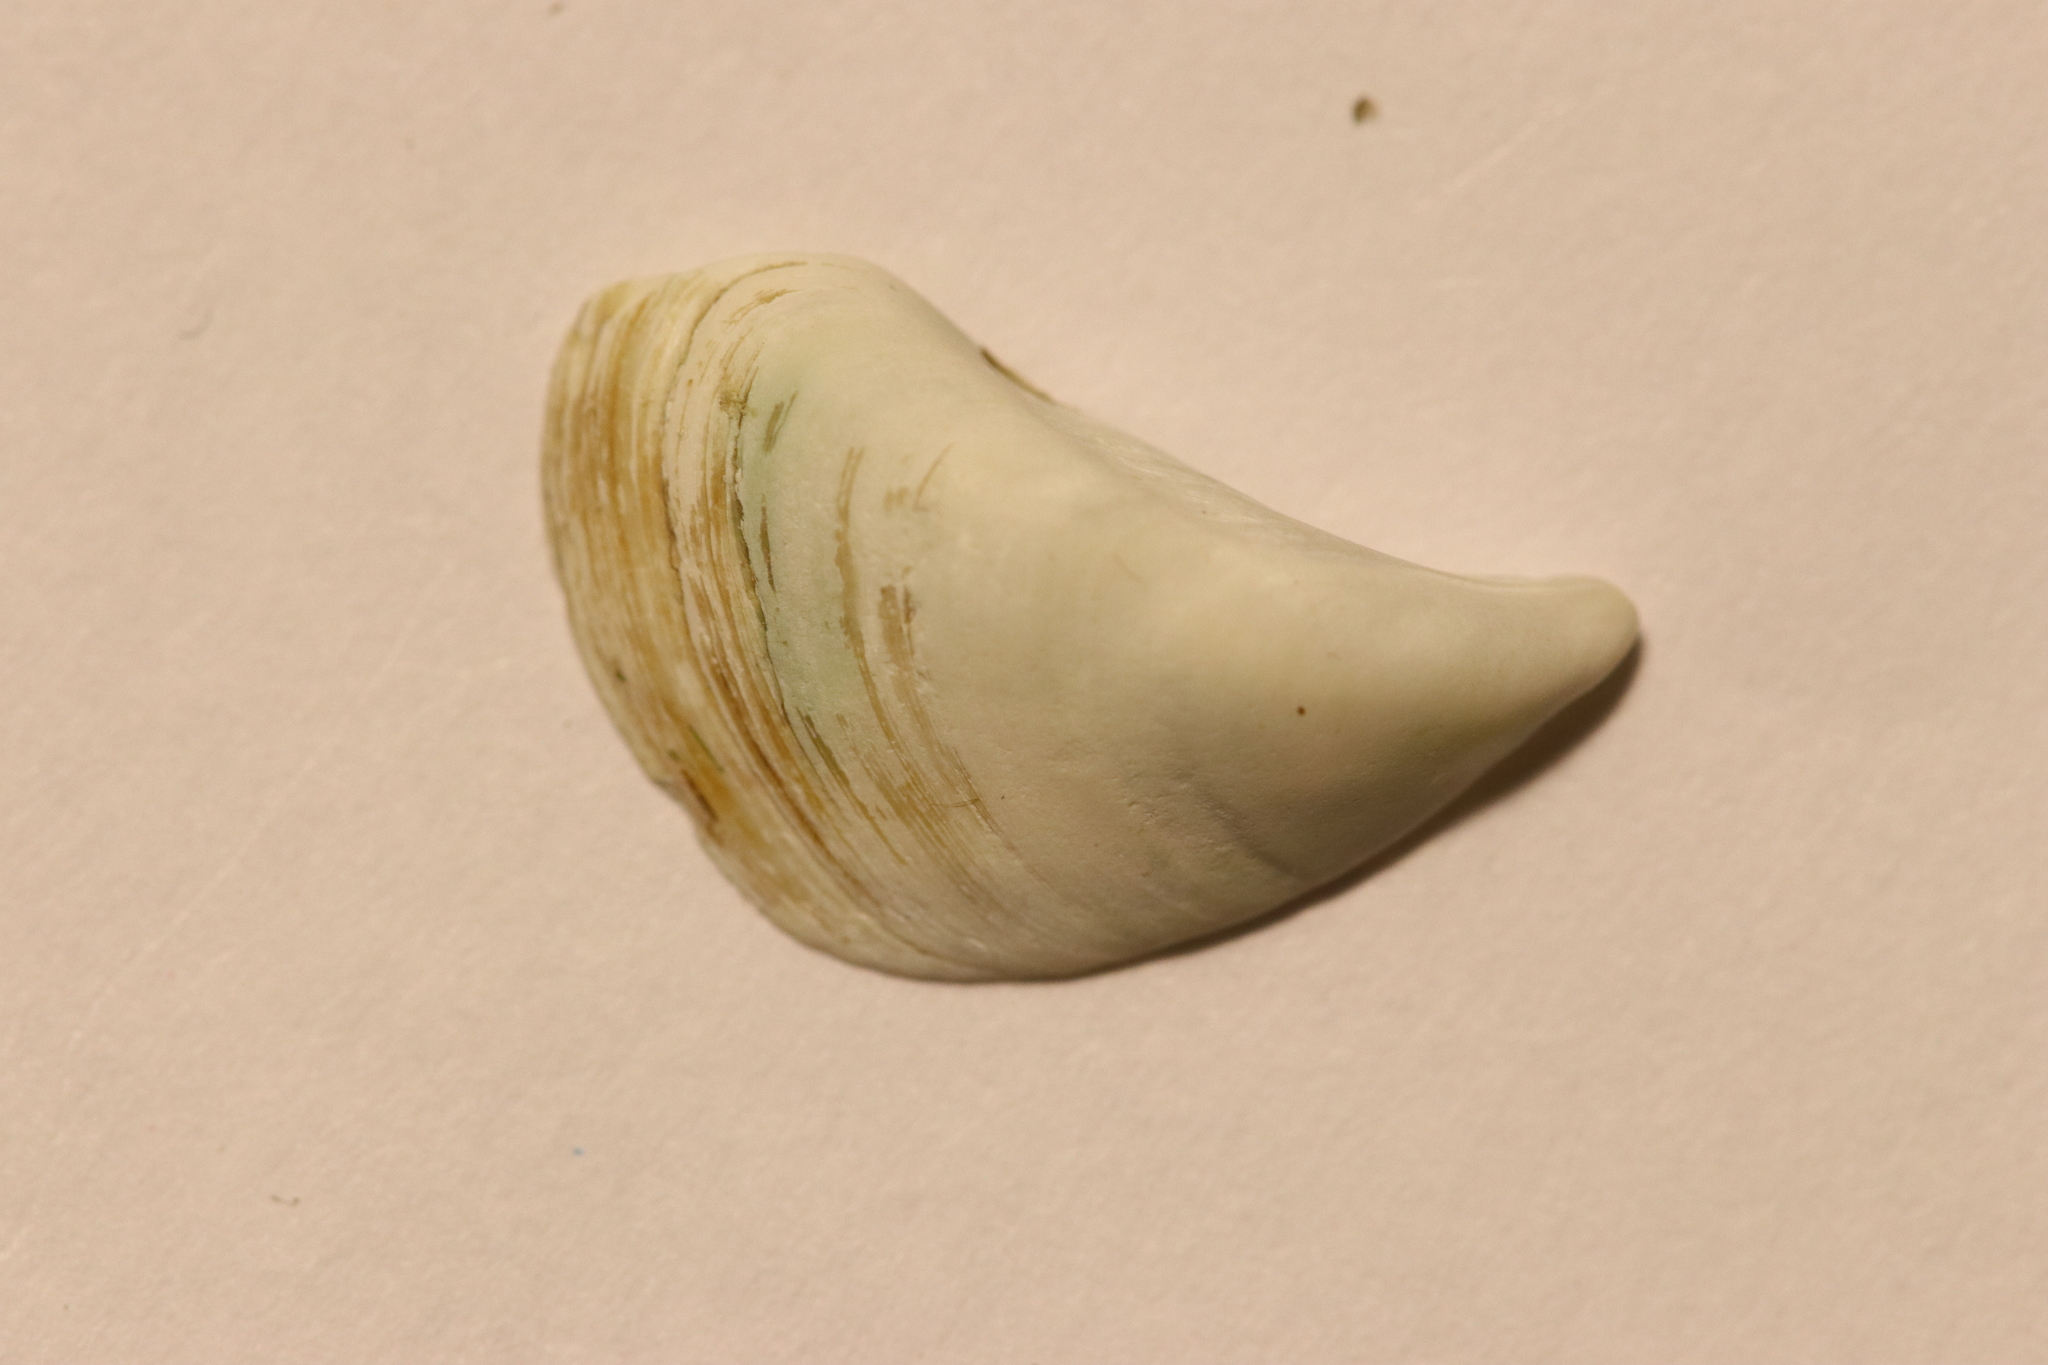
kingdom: Animalia
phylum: Mollusca
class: Bivalvia
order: Myida
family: Dreissenidae
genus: Dreissena
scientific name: Dreissena bugensis
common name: Quagga mussel
